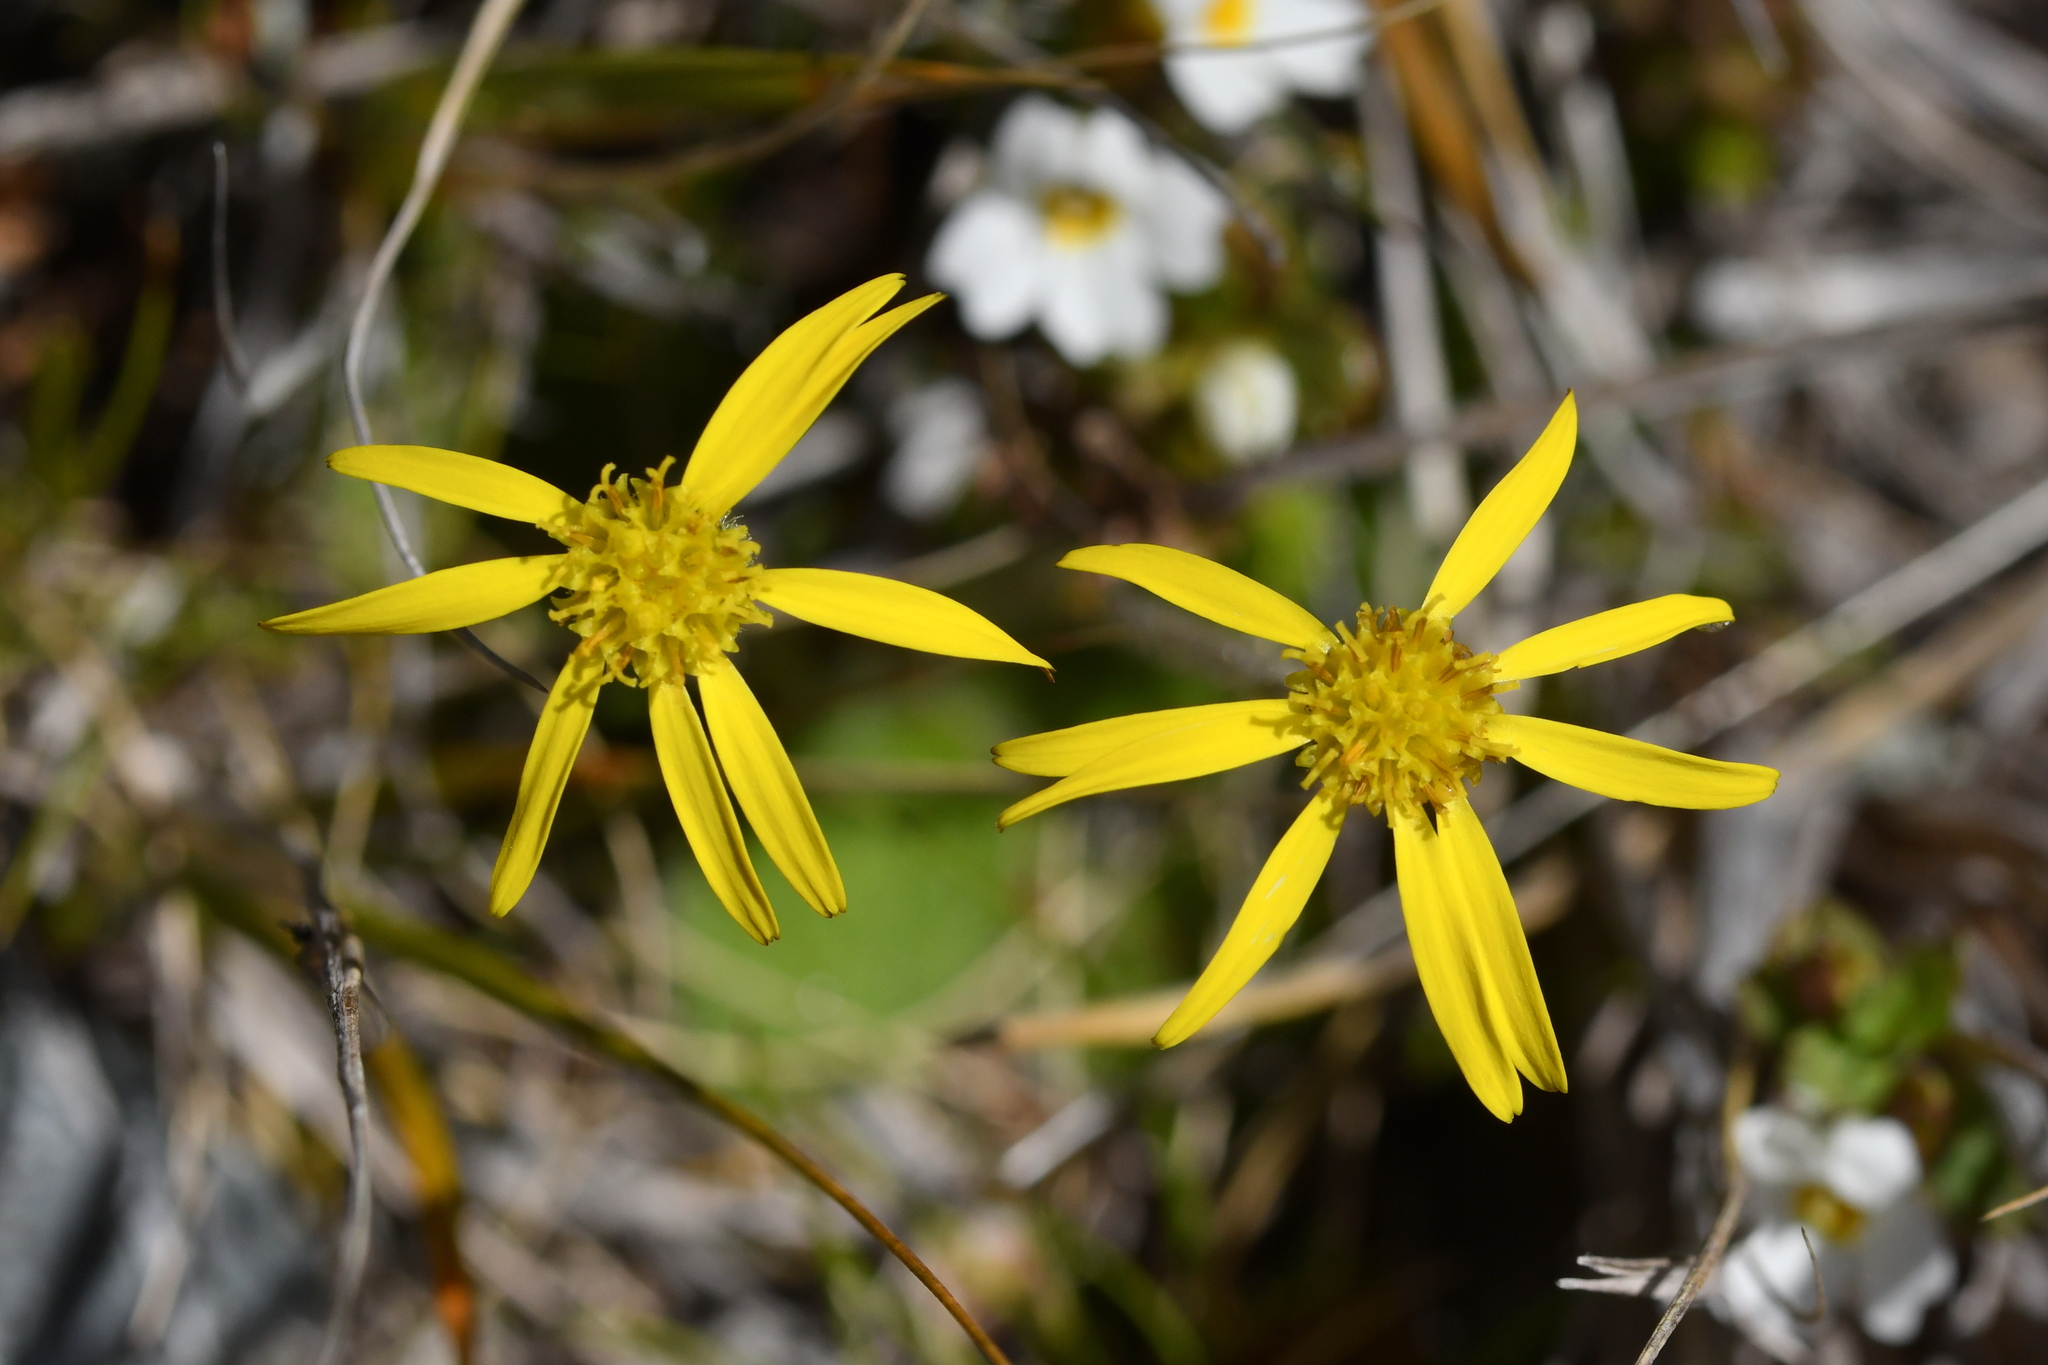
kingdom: Plantae
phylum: Tracheophyta
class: Magnoliopsida
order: Asterales
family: Asteraceae
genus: Brachyglottis
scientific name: Brachyglottis bellidioides
